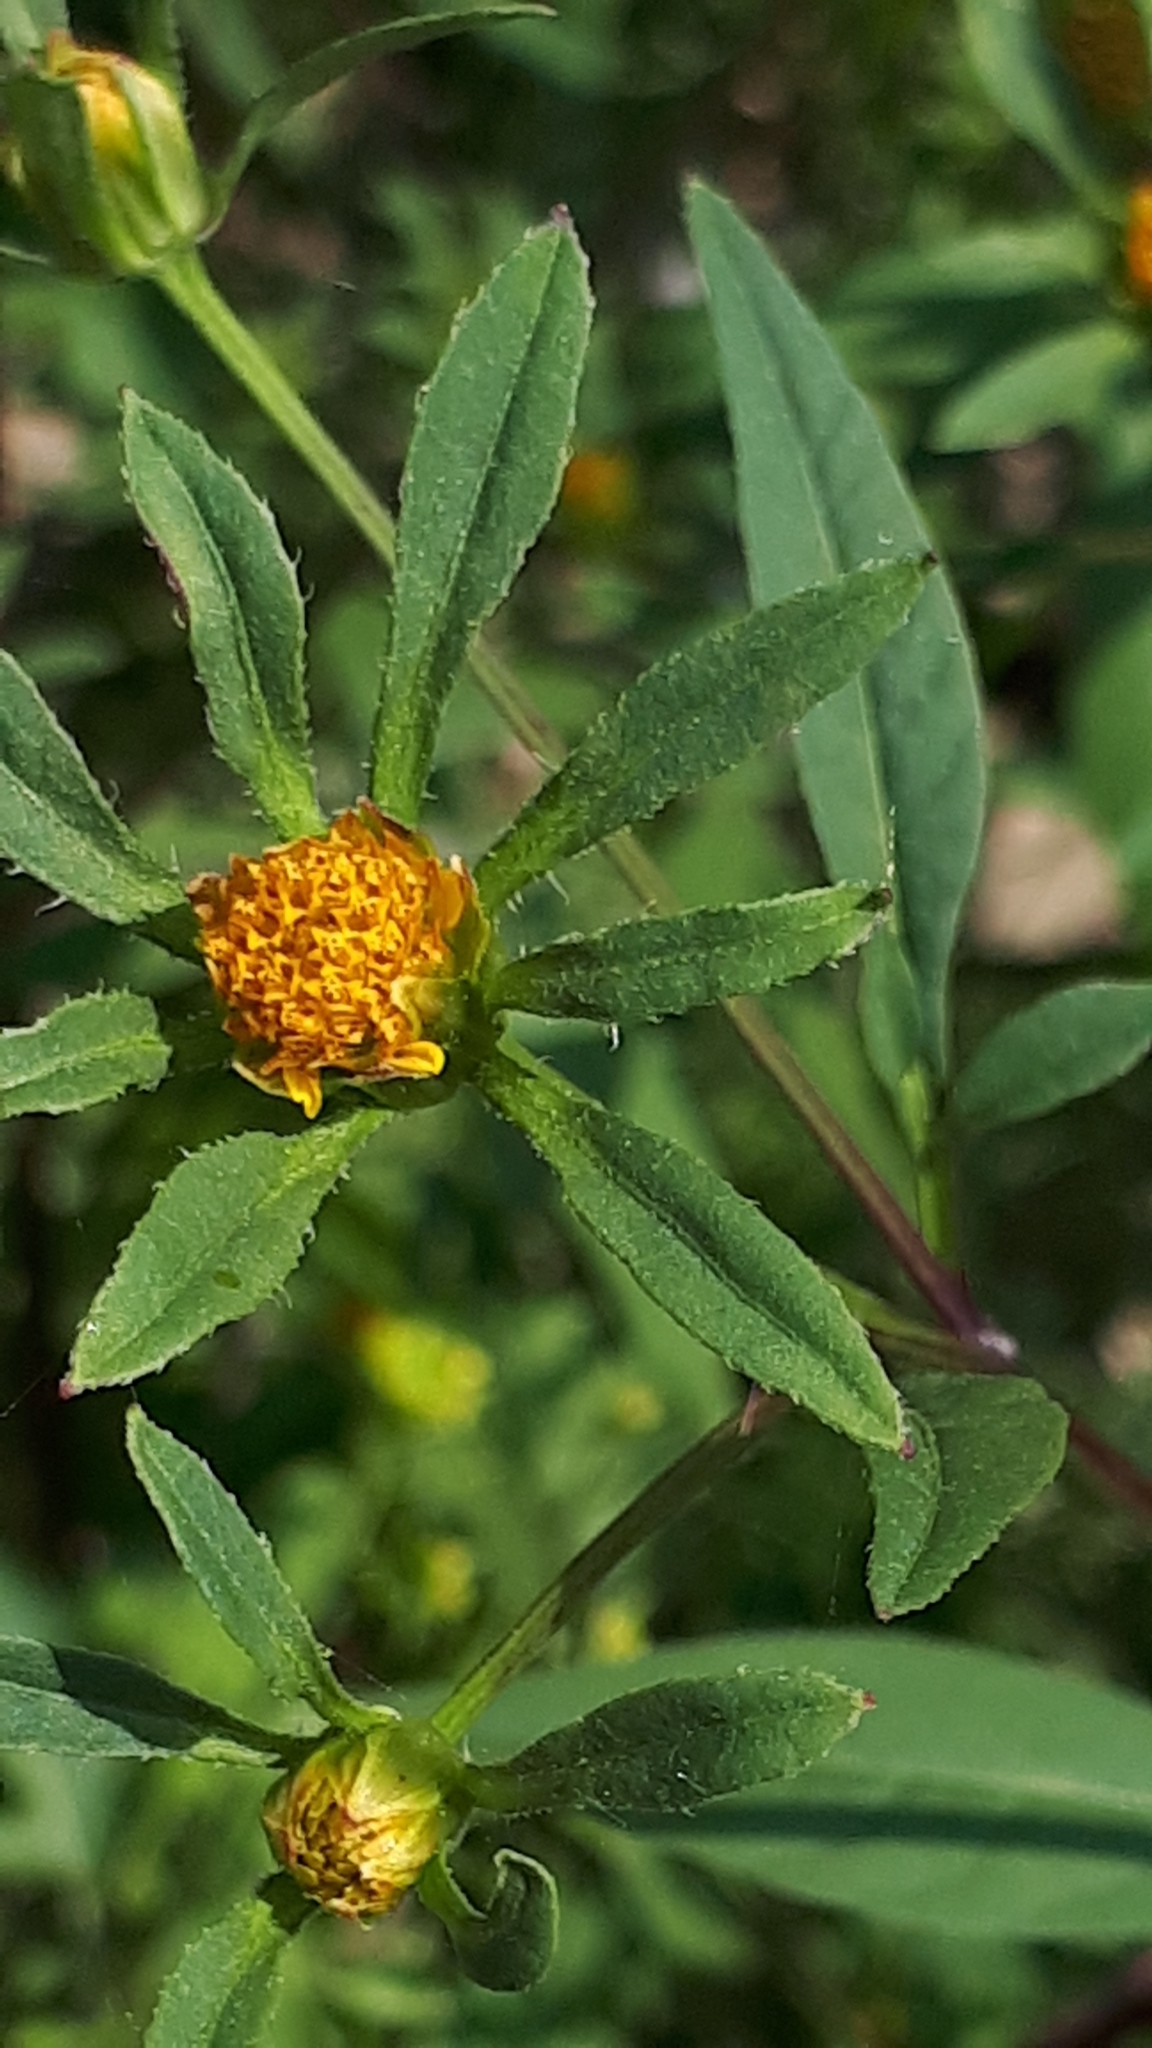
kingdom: Plantae
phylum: Tracheophyta
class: Magnoliopsida
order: Asterales
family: Asteraceae
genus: Bidens
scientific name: Bidens frondosa
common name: Beggarticks
